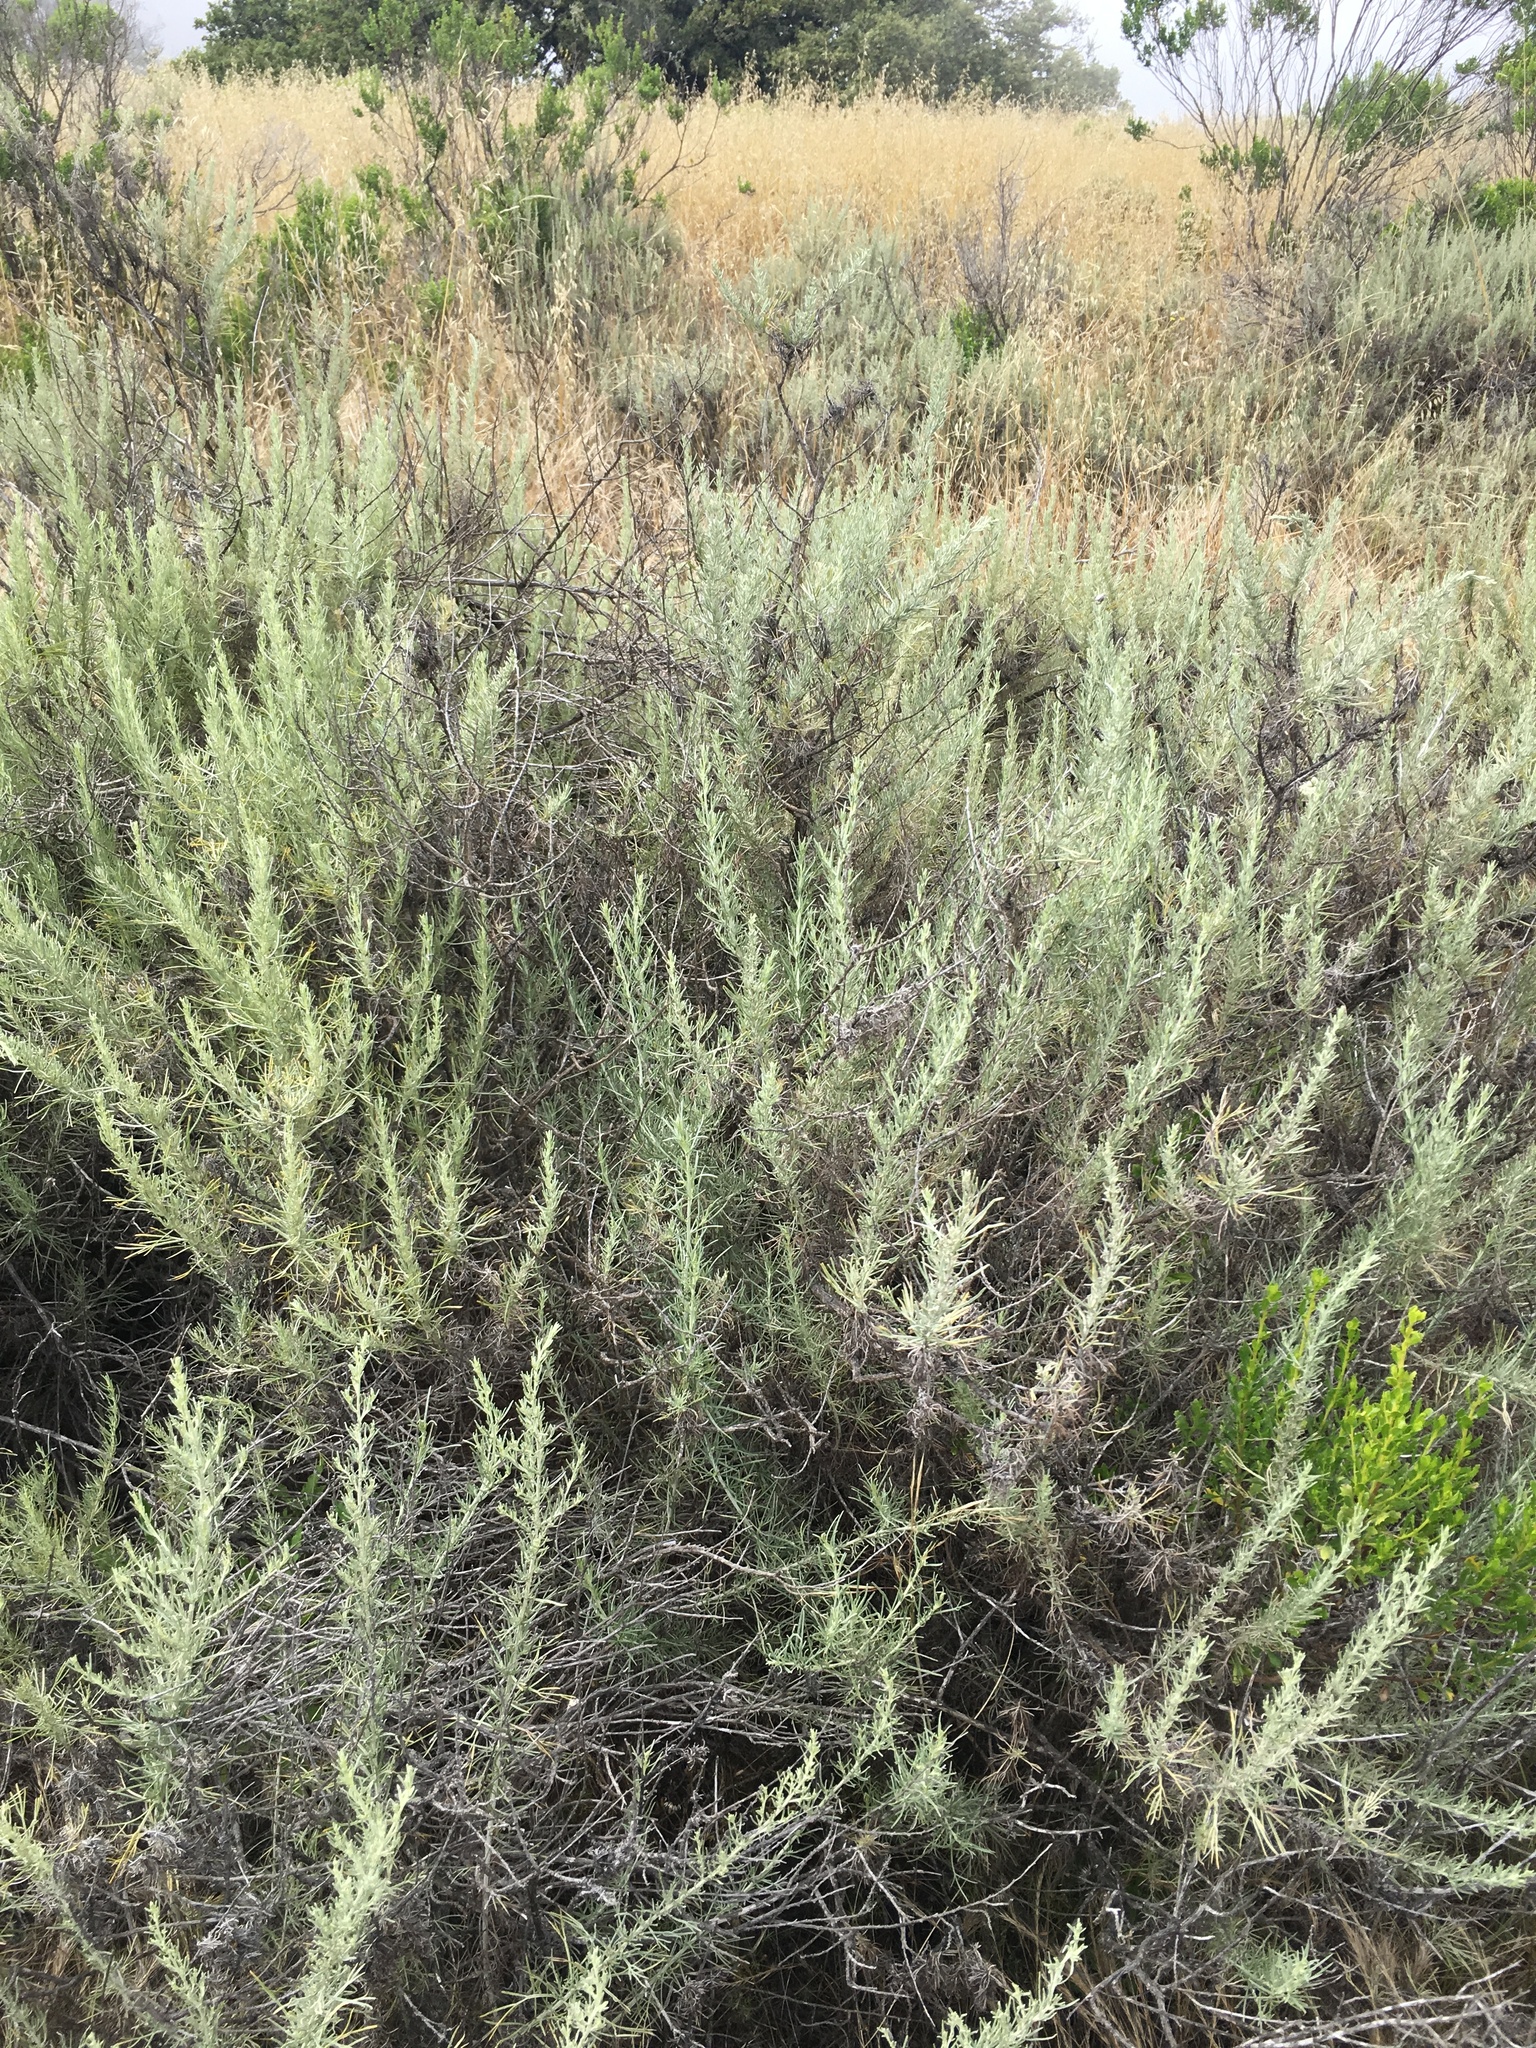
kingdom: Plantae
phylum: Tracheophyta
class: Magnoliopsida
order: Asterales
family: Asteraceae
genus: Artemisia
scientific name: Artemisia californica
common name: California sagebrush
